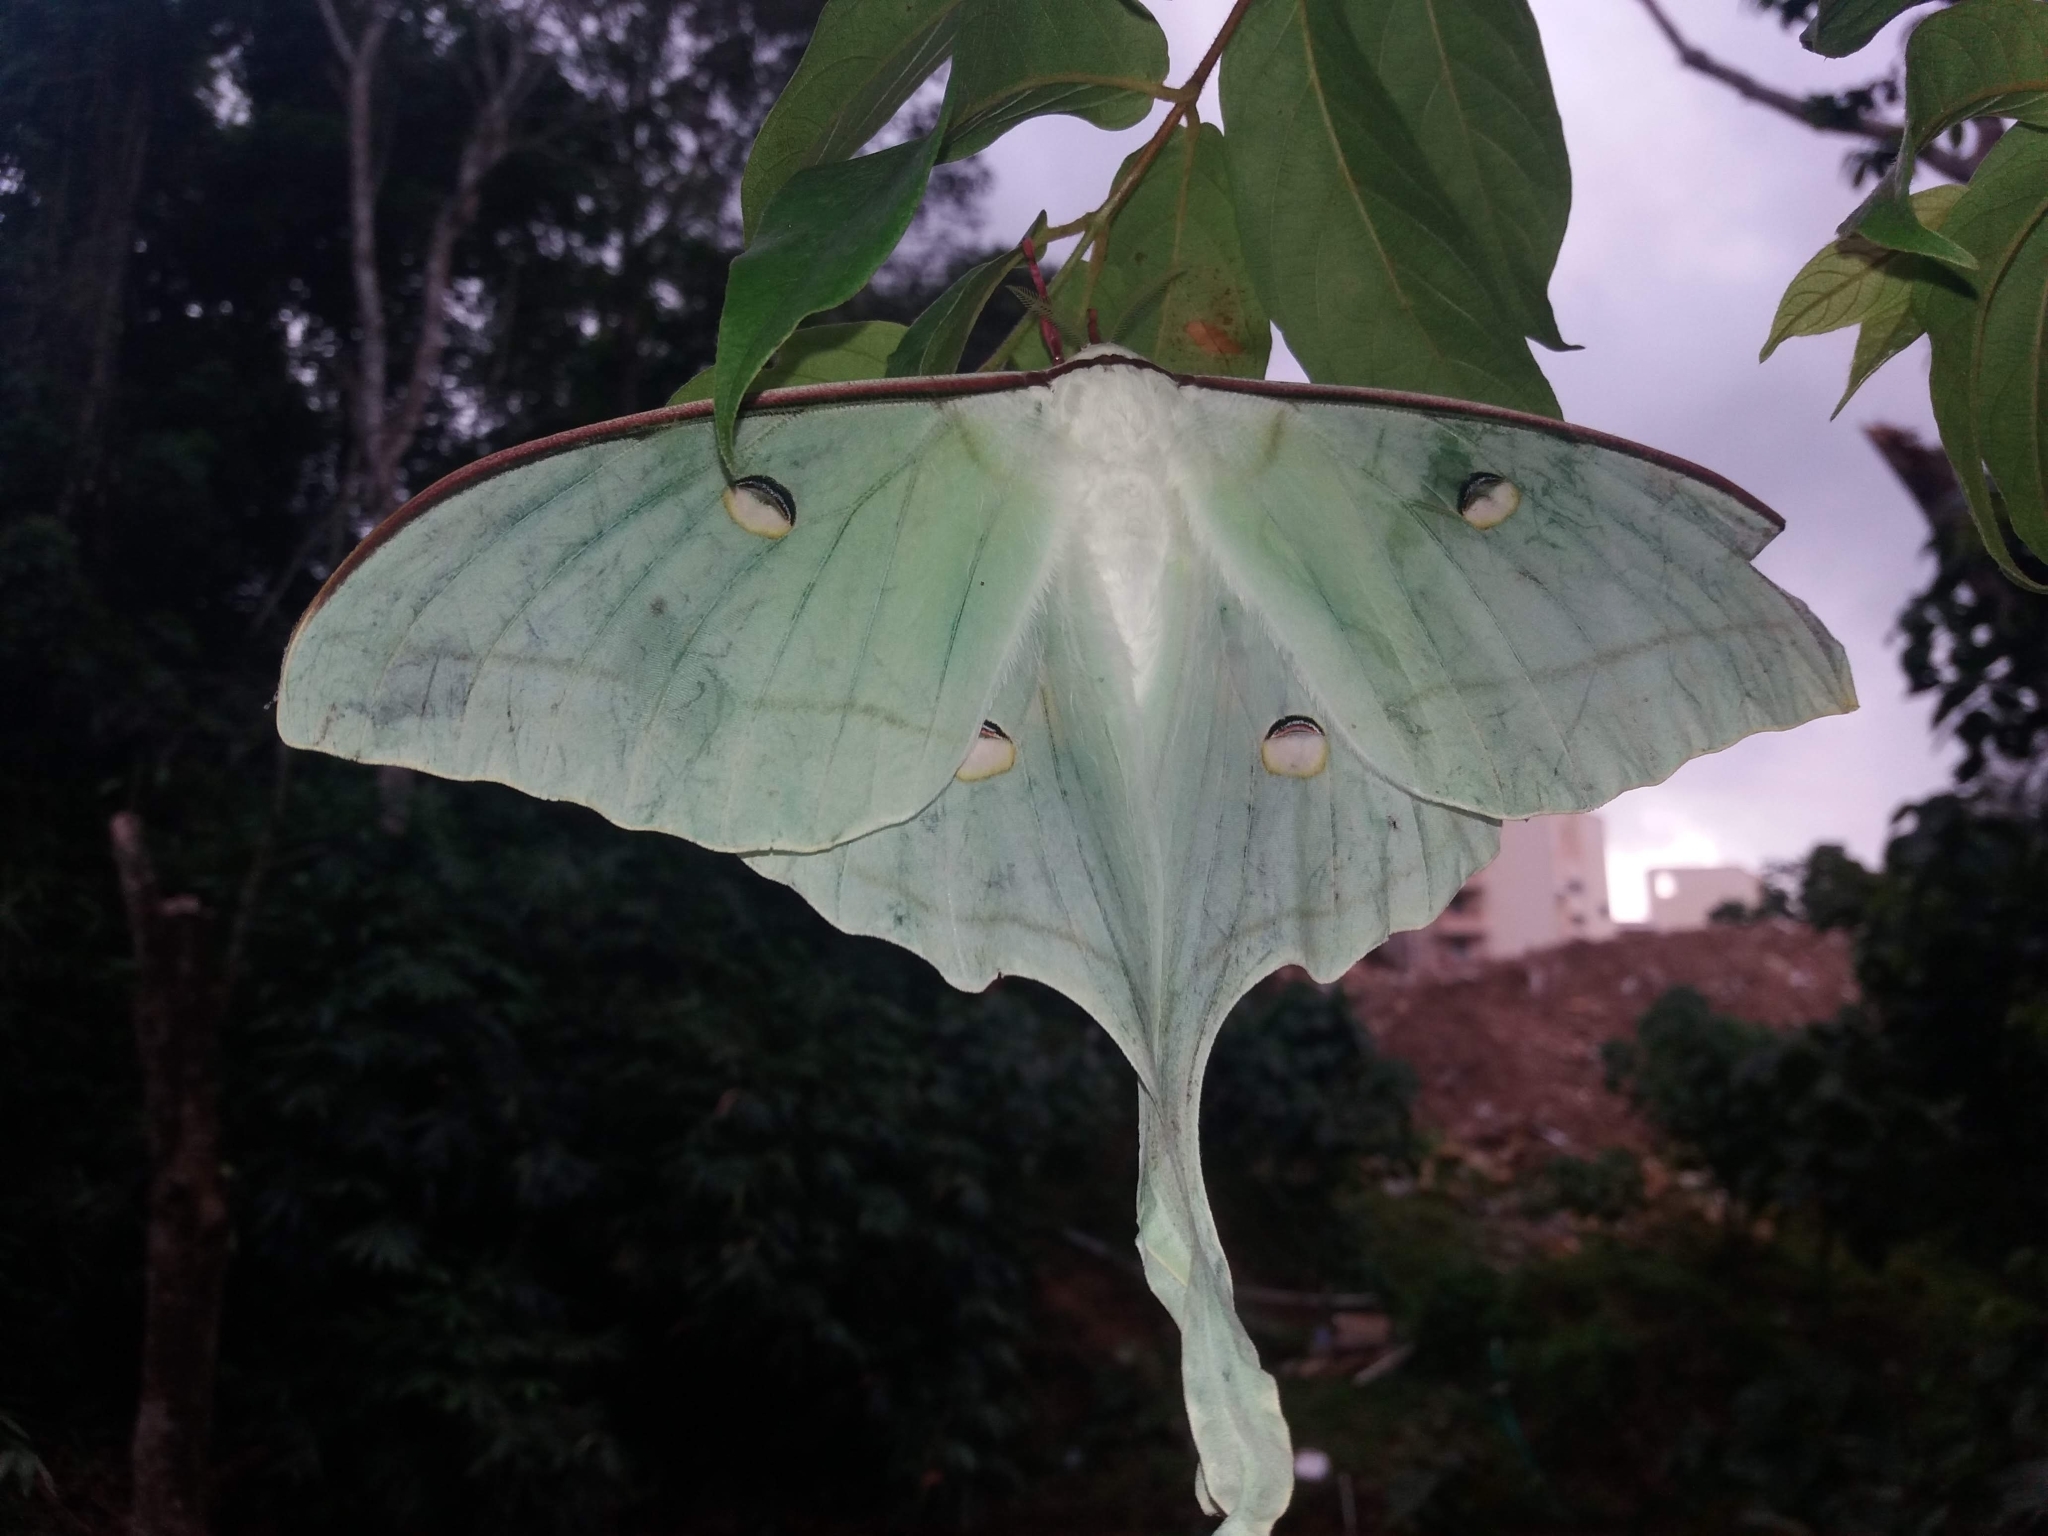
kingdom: Animalia
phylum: Arthropoda
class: Insecta
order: Lepidoptera
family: Saturniidae
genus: Actias
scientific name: Actias selene
